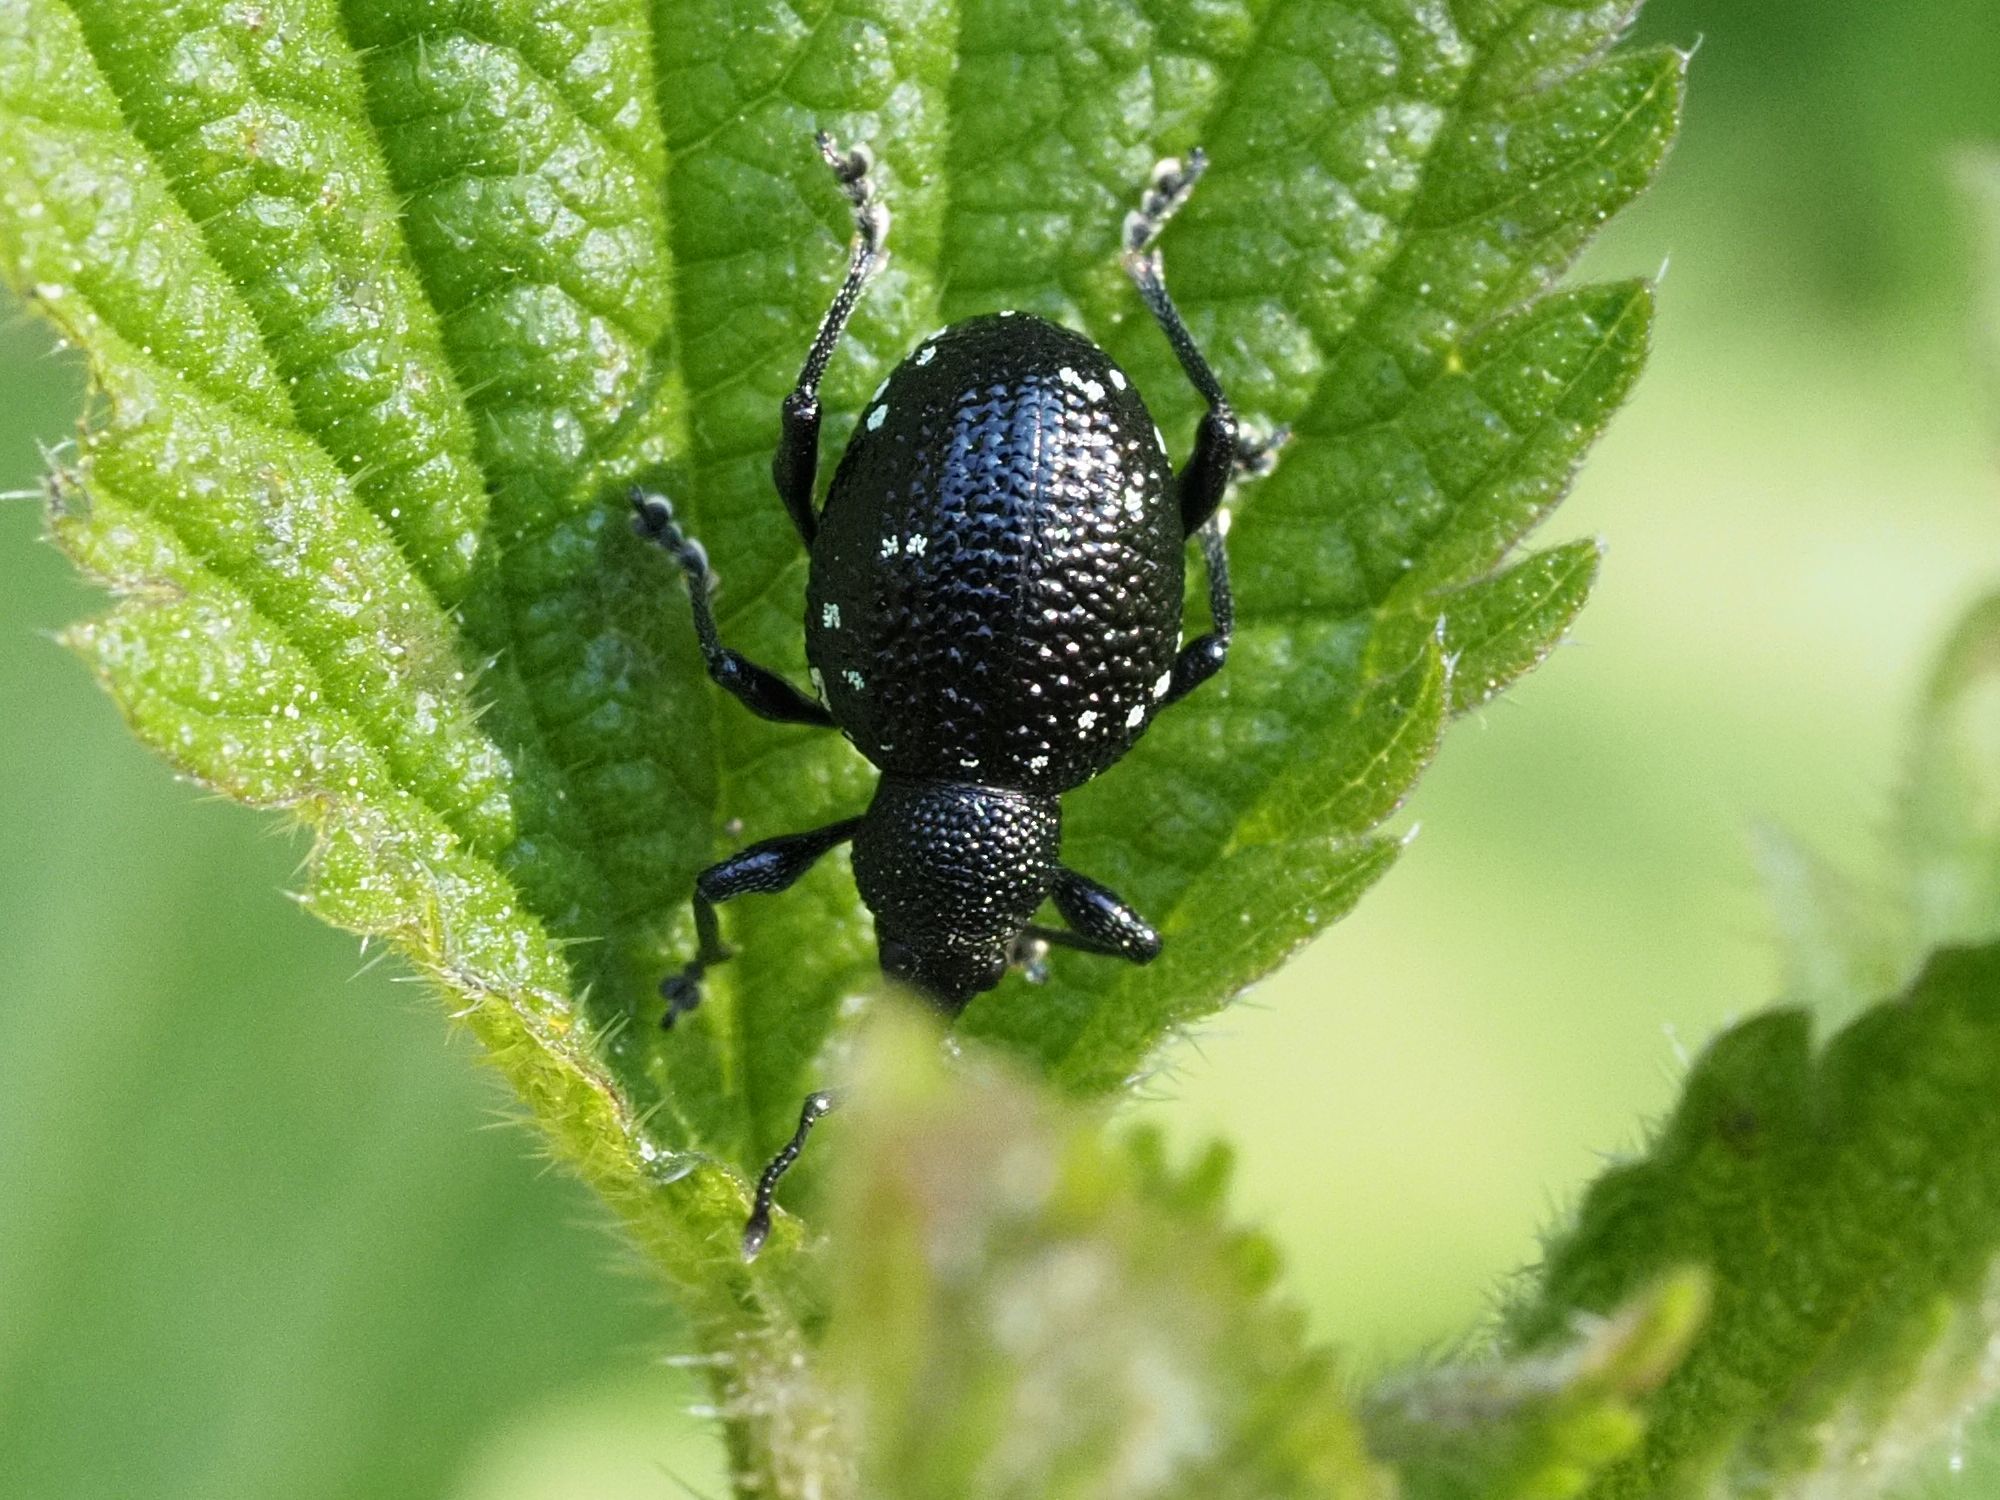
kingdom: Animalia
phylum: Arthropoda
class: Insecta
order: Coleoptera
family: Curculionidae
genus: Otiorhynchus
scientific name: Otiorhynchus gemmatus
